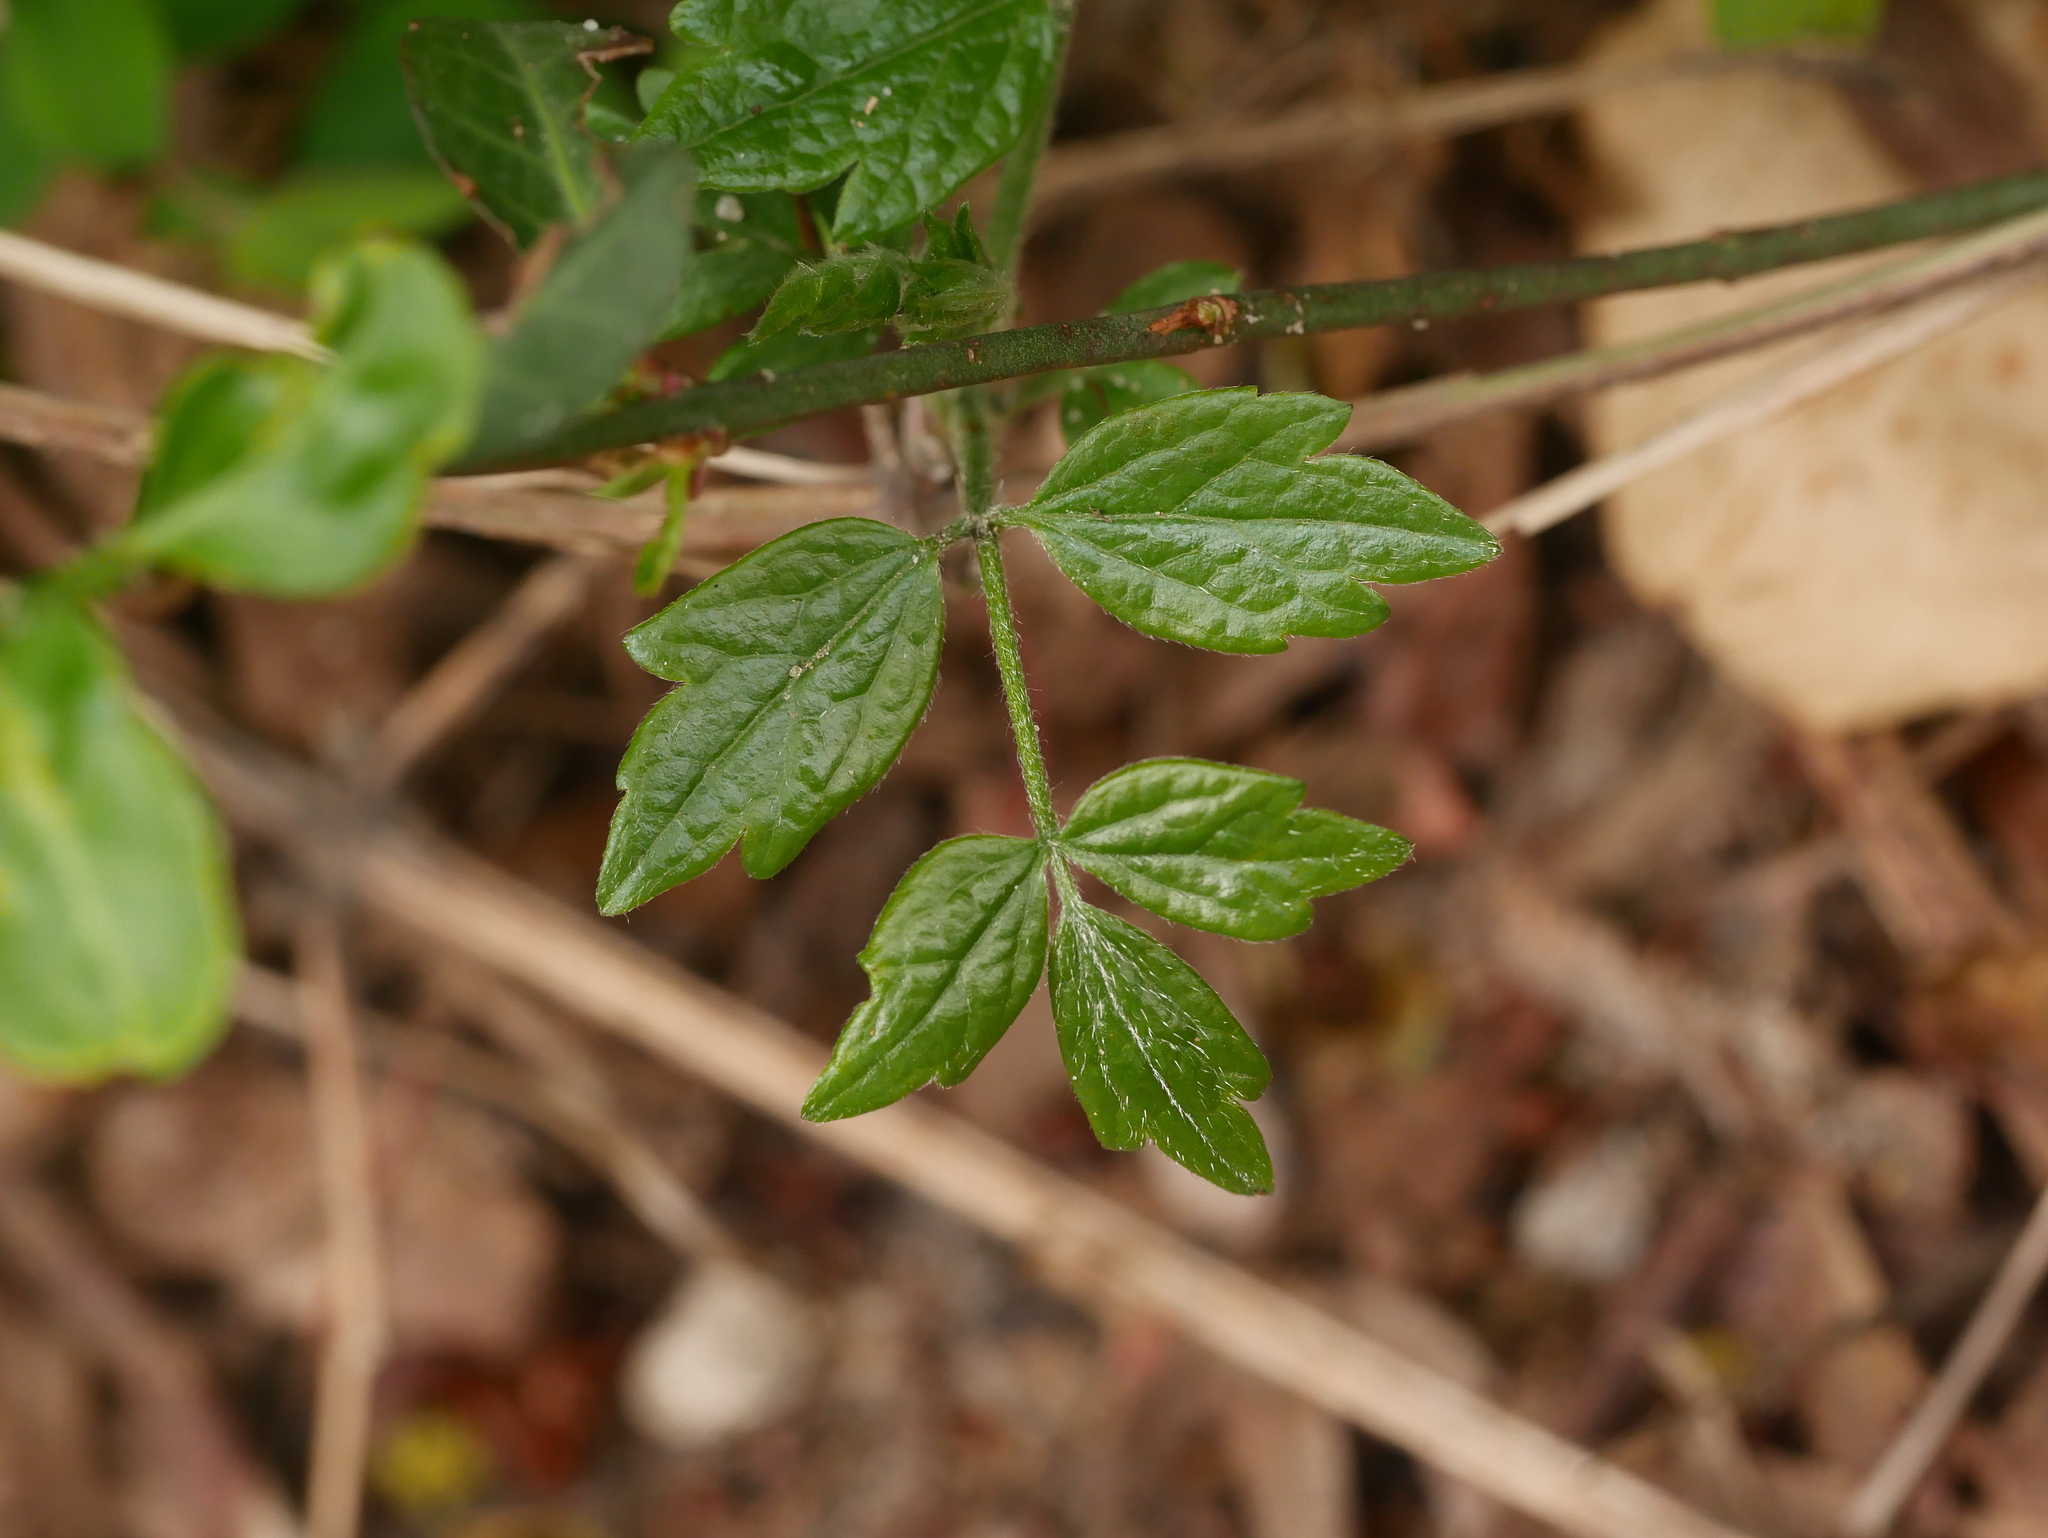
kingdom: Plantae
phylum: Tracheophyta
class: Magnoliopsida
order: Ranunculales
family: Ranunculaceae
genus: Clematis
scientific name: Clematis vitalba
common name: Evergreen clematis
